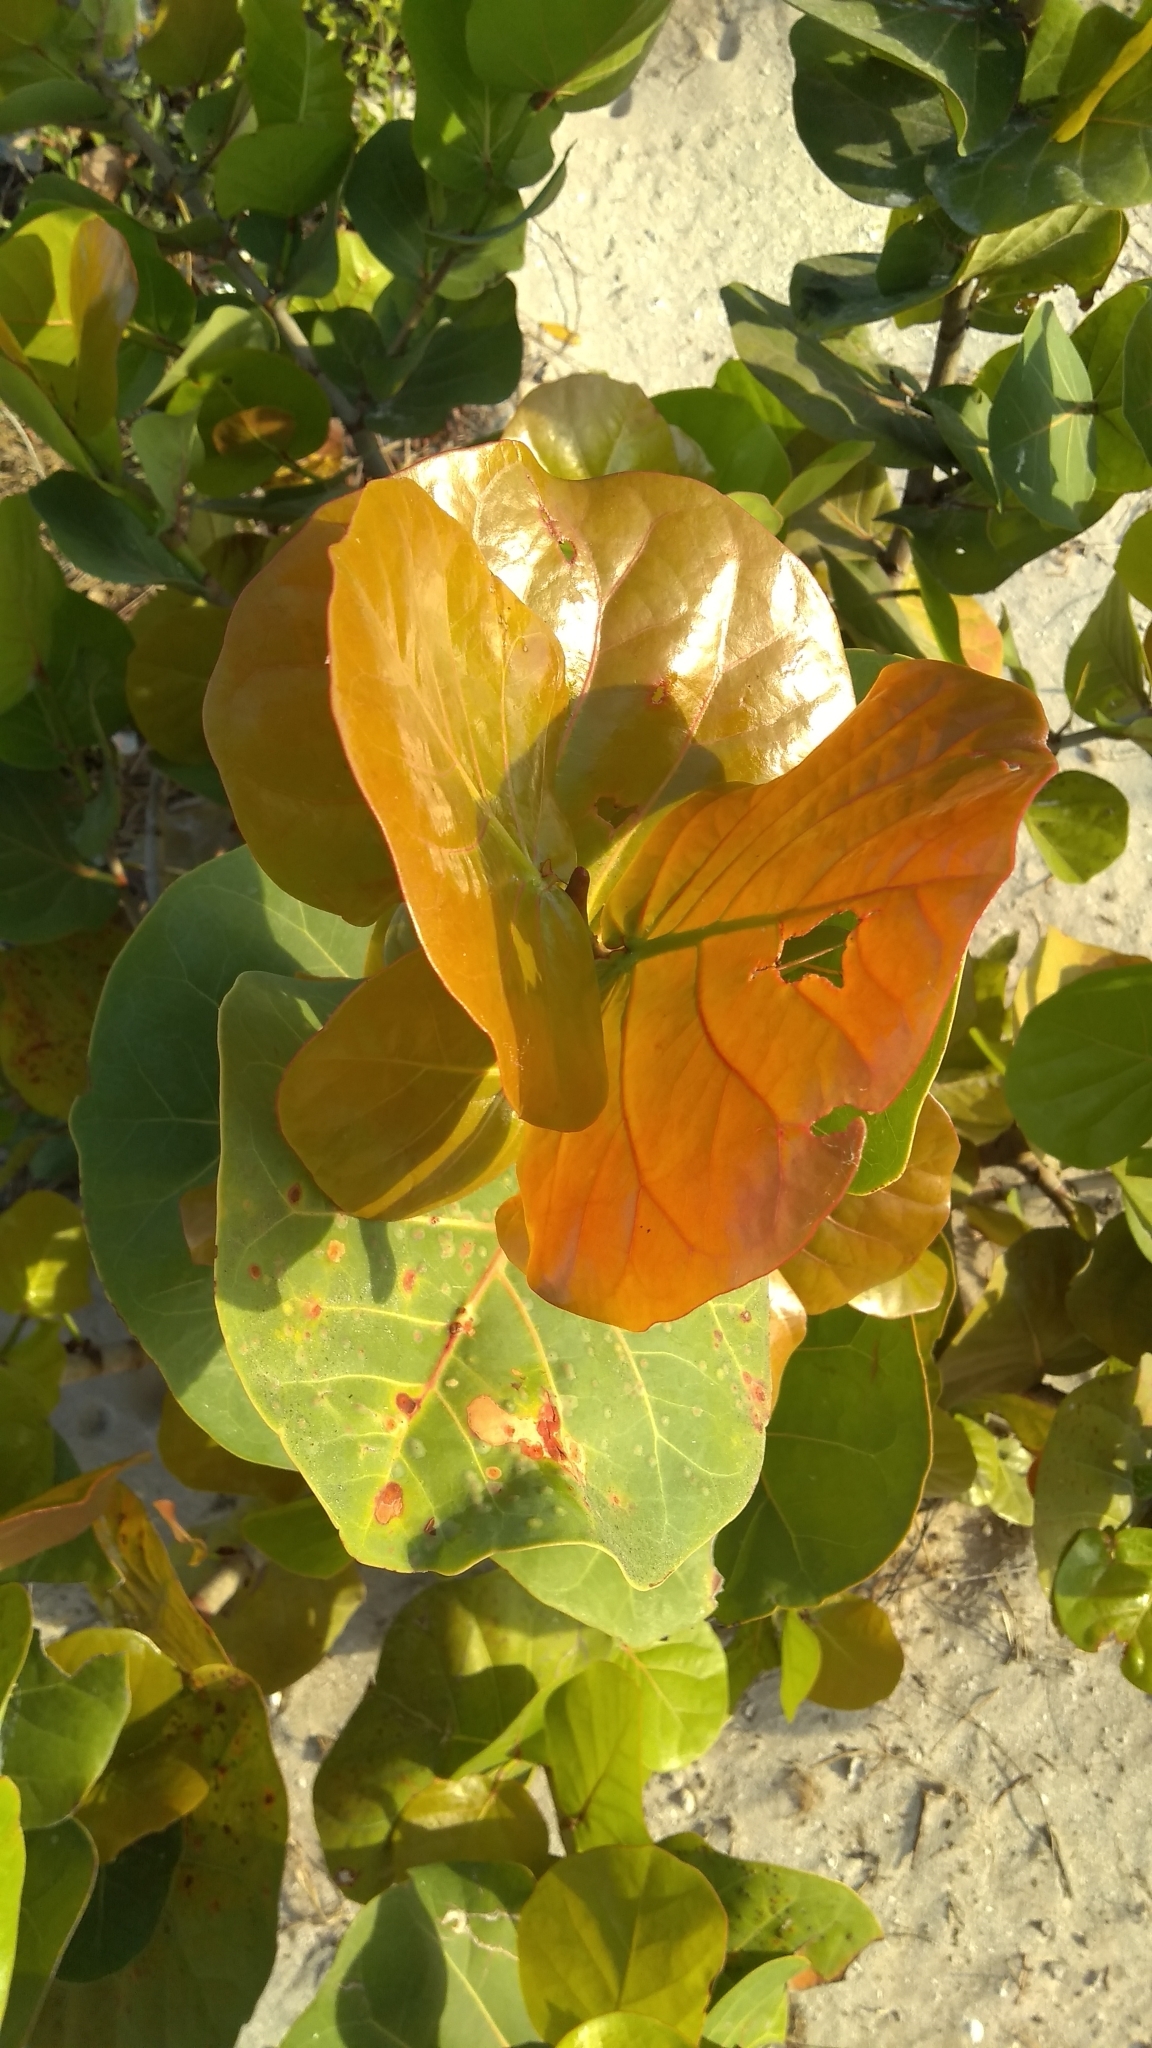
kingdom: Plantae
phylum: Tracheophyta
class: Magnoliopsida
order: Caryophyllales
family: Polygonaceae
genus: Coccoloba
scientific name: Coccoloba uvifera
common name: Seagrape
